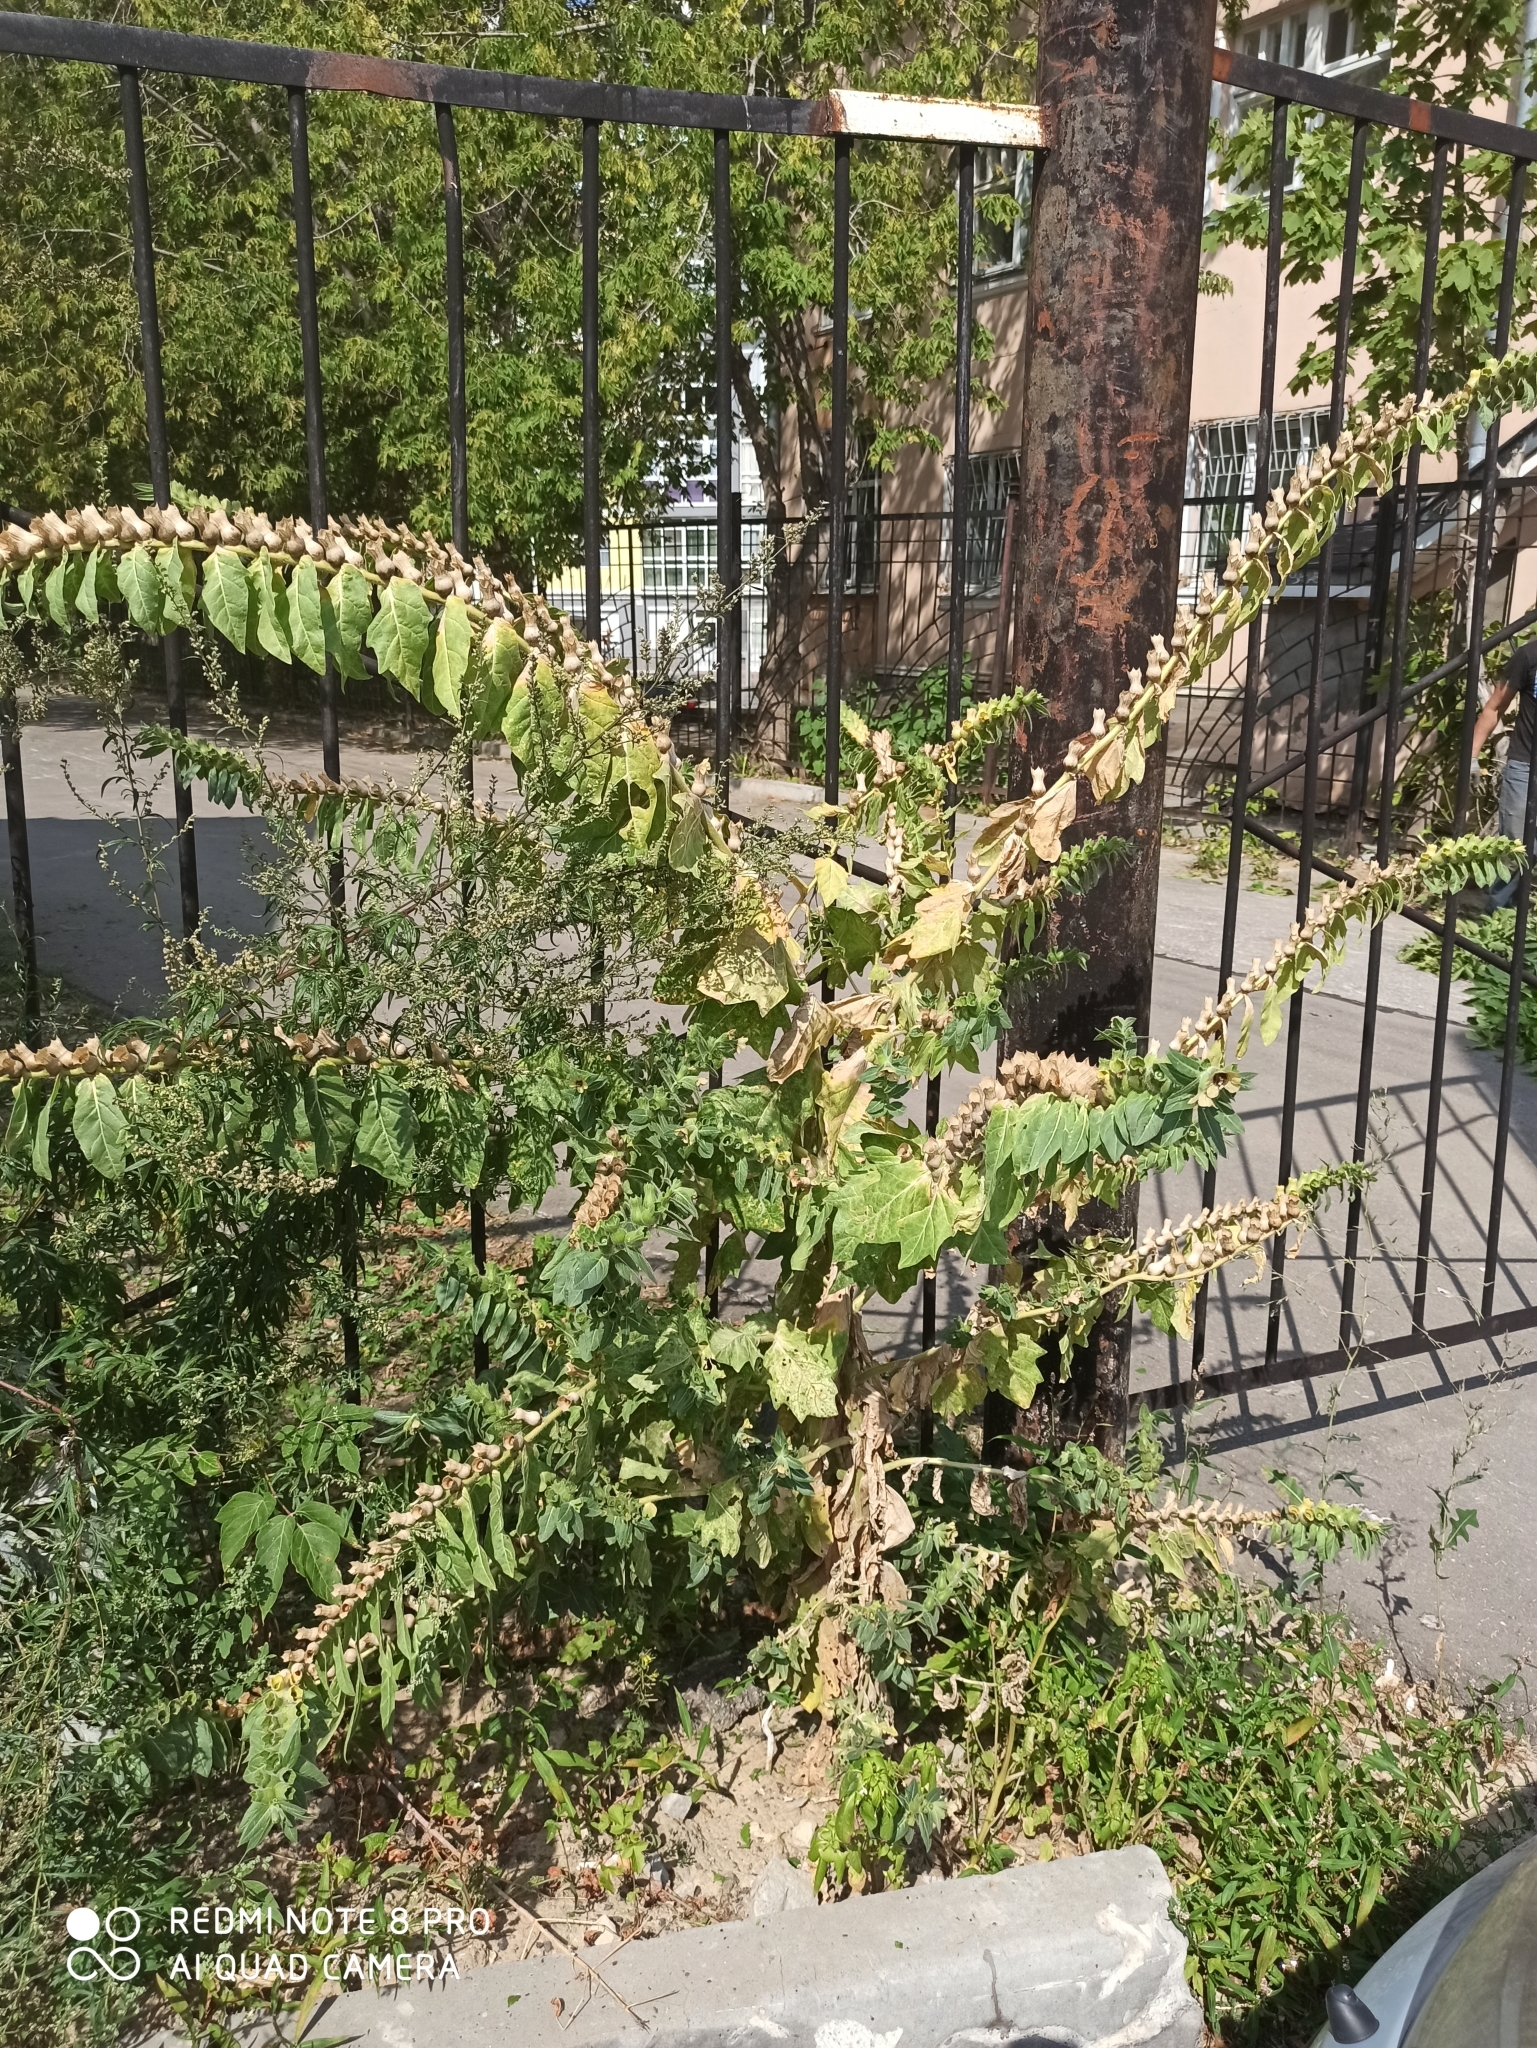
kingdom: Plantae
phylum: Tracheophyta
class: Magnoliopsida
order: Solanales
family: Solanaceae
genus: Hyoscyamus
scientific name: Hyoscyamus niger
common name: Henbane
